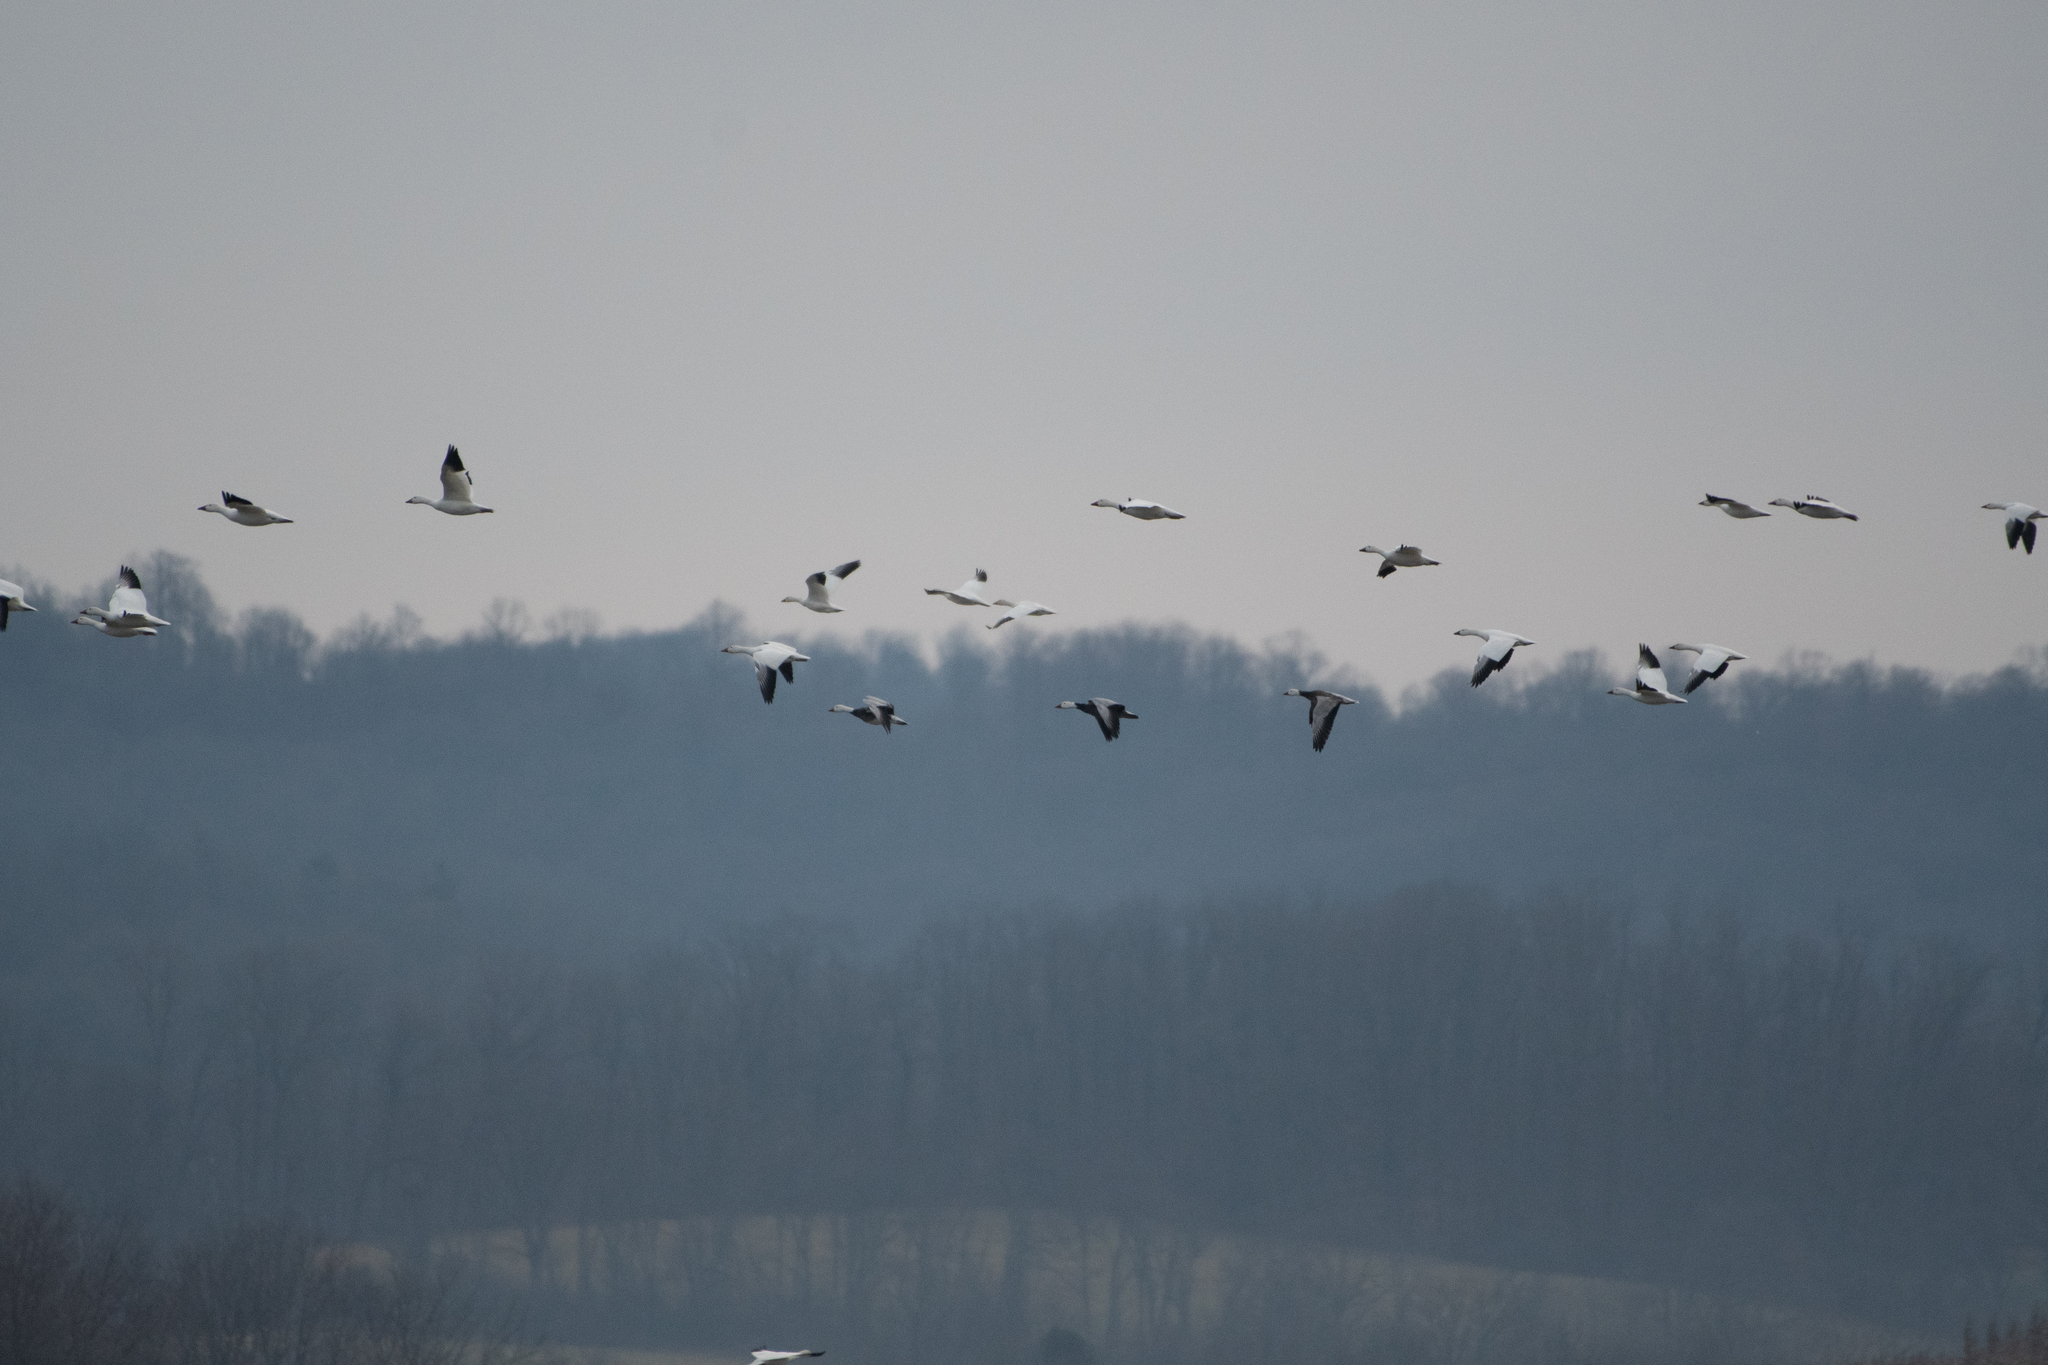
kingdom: Animalia
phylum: Chordata
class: Aves
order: Anseriformes
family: Anatidae
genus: Anser
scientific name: Anser caerulescens
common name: Snow goose
